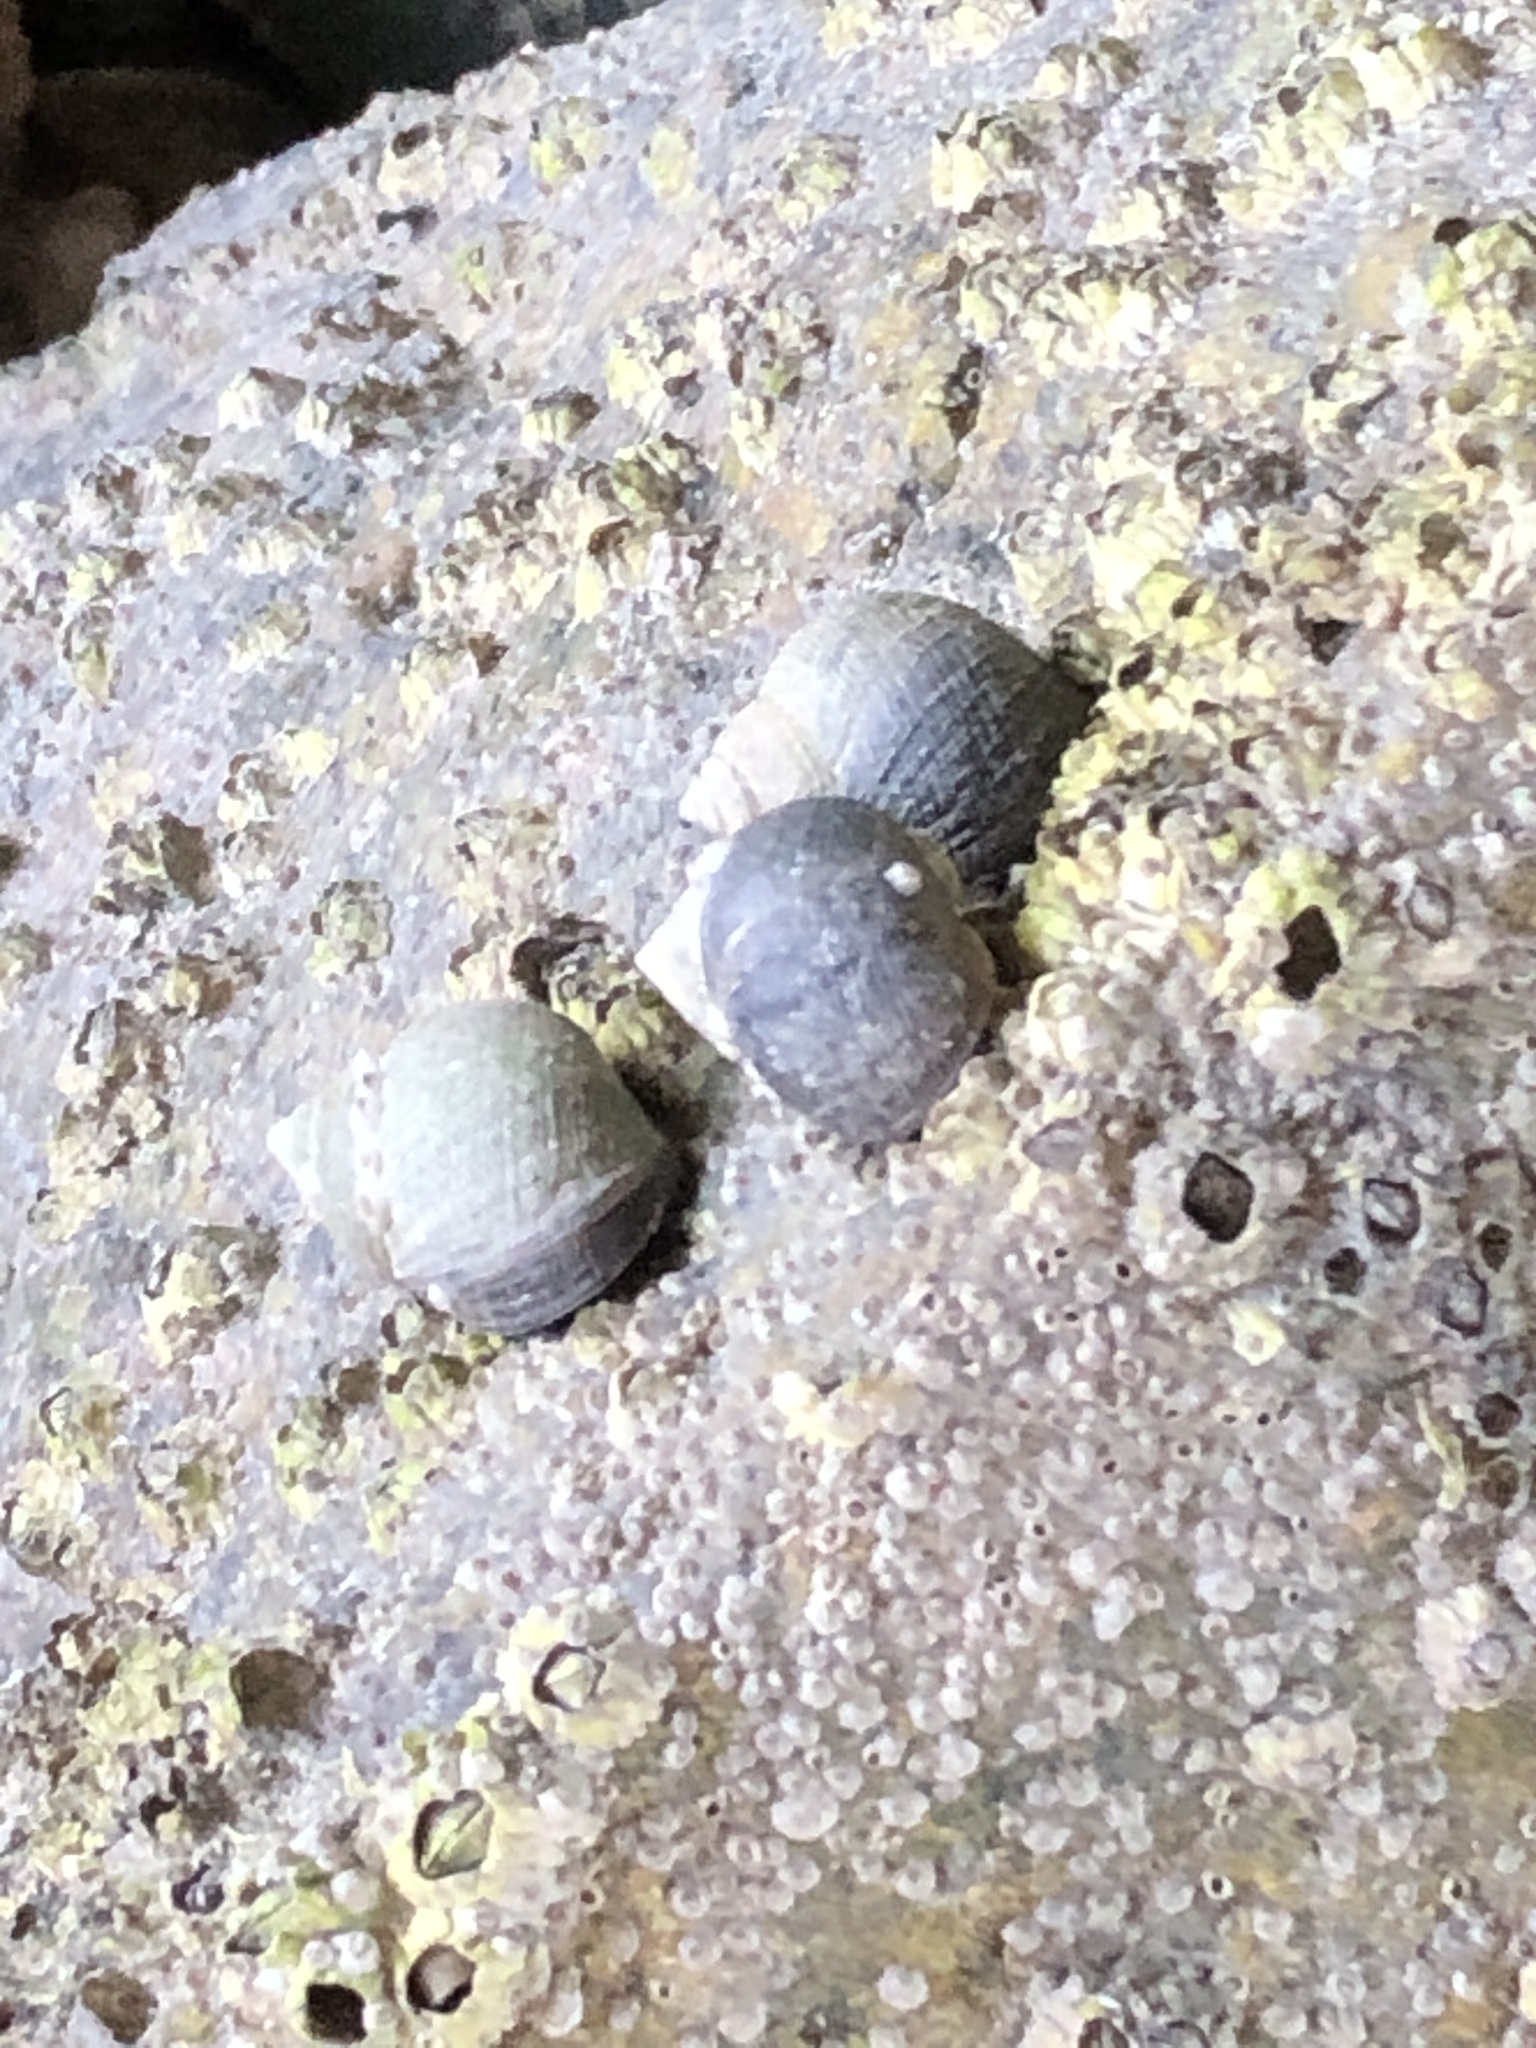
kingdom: Animalia
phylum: Mollusca
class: Gastropoda
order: Littorinimorpha
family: Littorinidae
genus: Littorina
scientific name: Littorina littorea
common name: Common periwinkle
